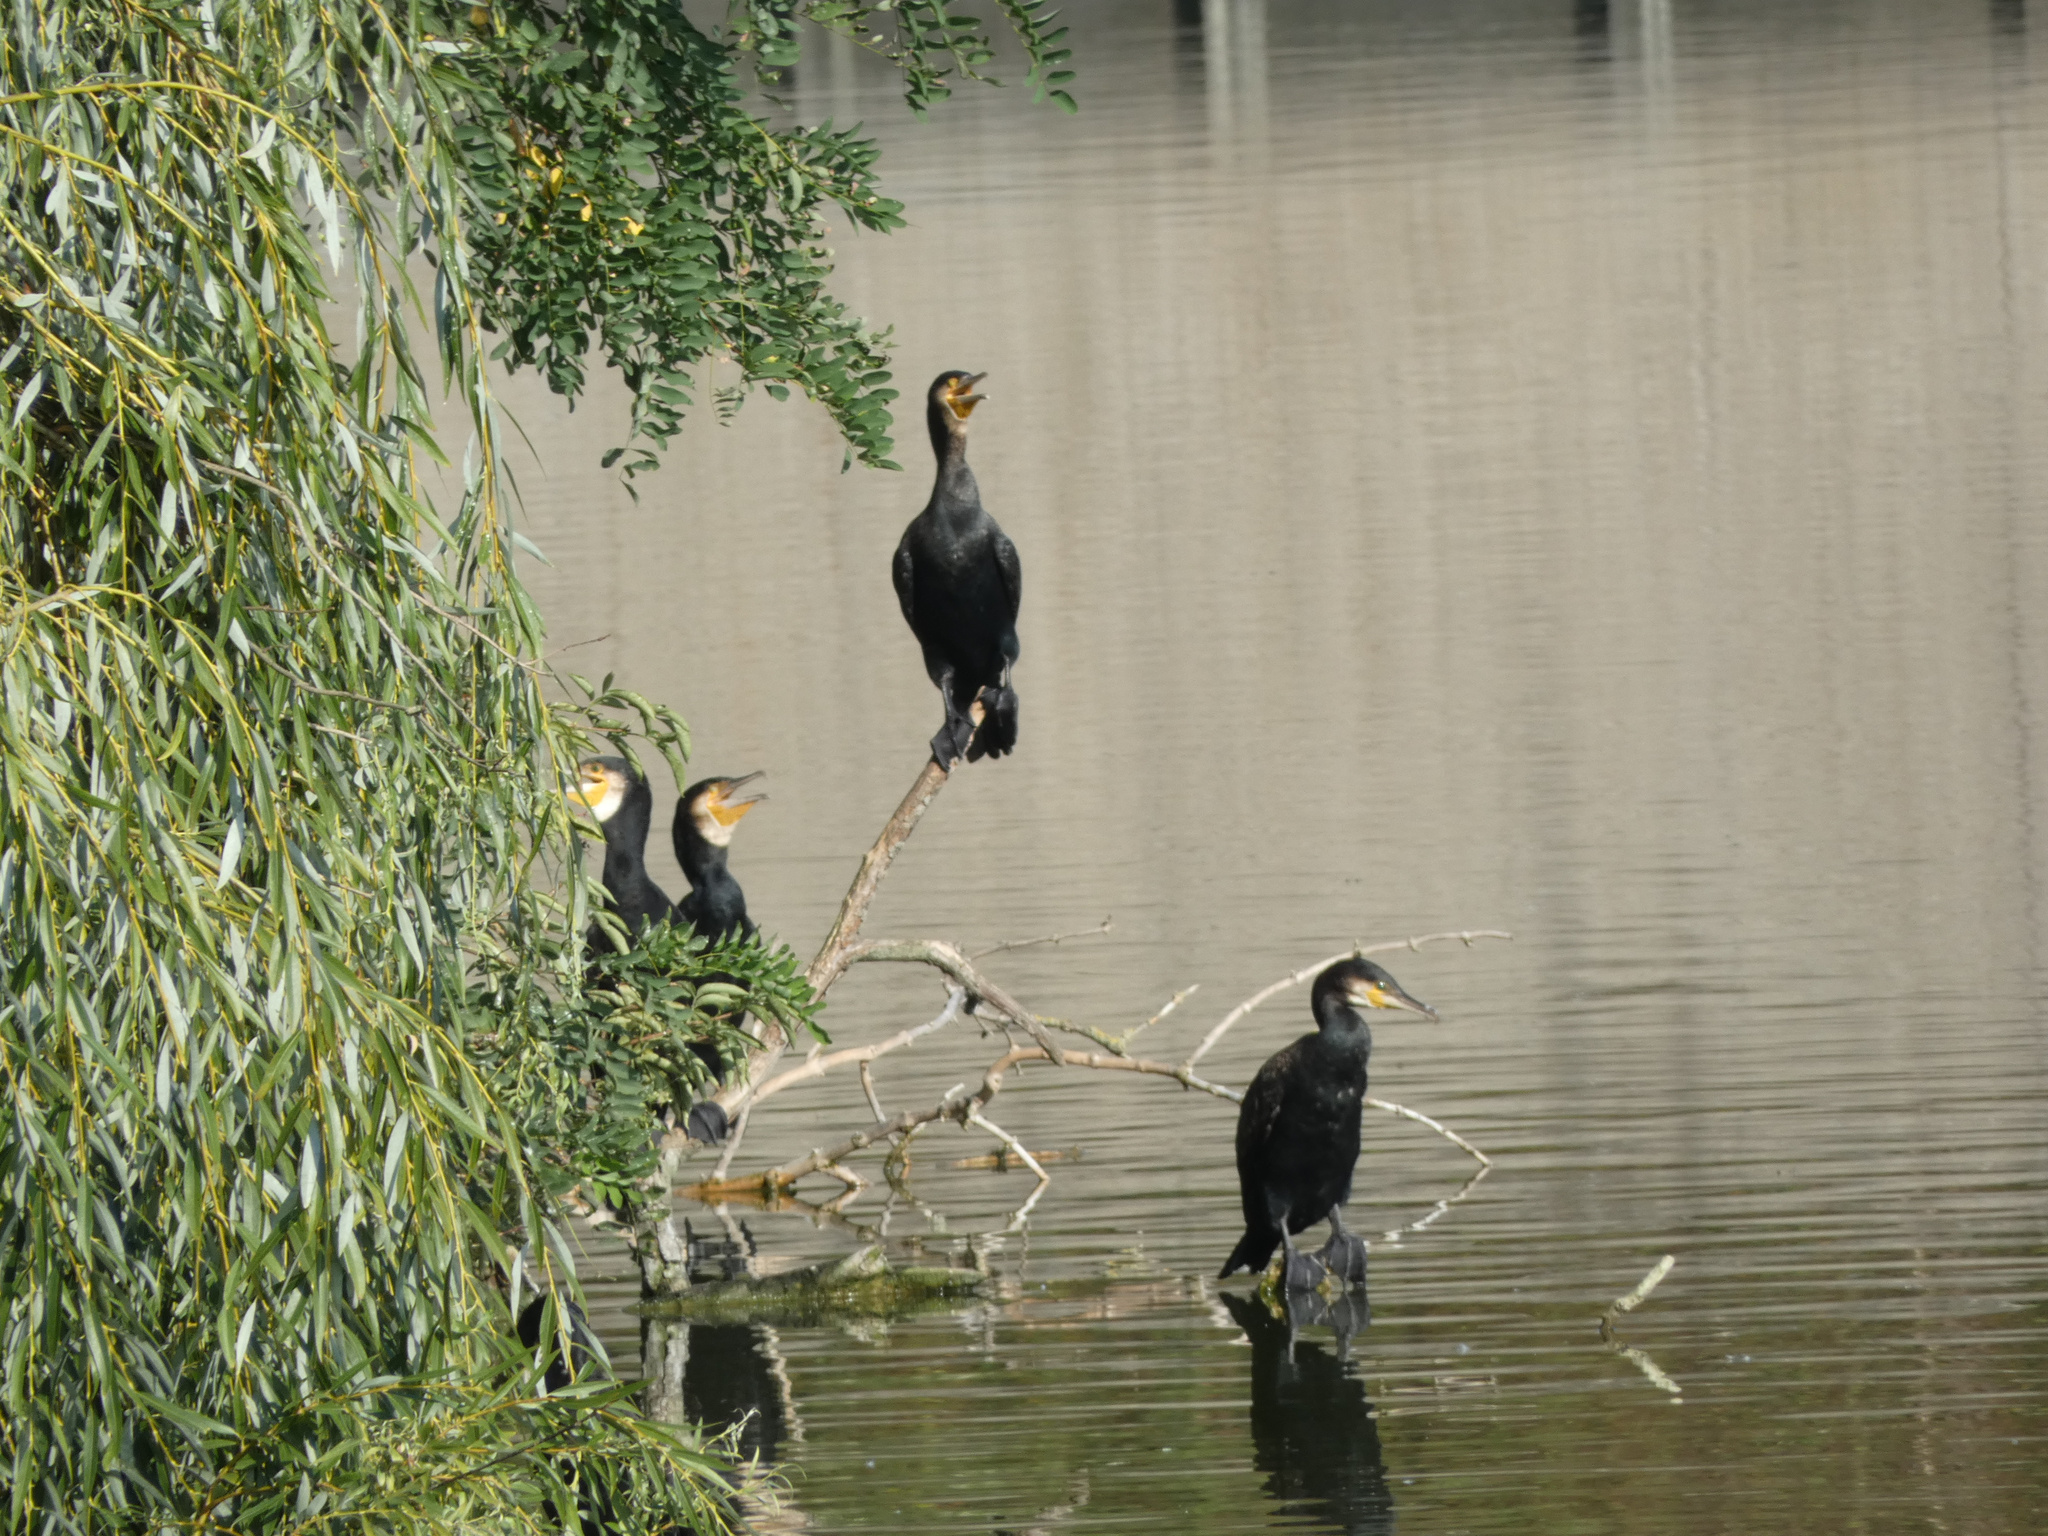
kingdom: Animalia
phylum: Chordata
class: Aves
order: Suliformes
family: Phalacrocoracidae
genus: Phalacrocorax
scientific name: Phalacrocorax carbo
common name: Great cormorant
